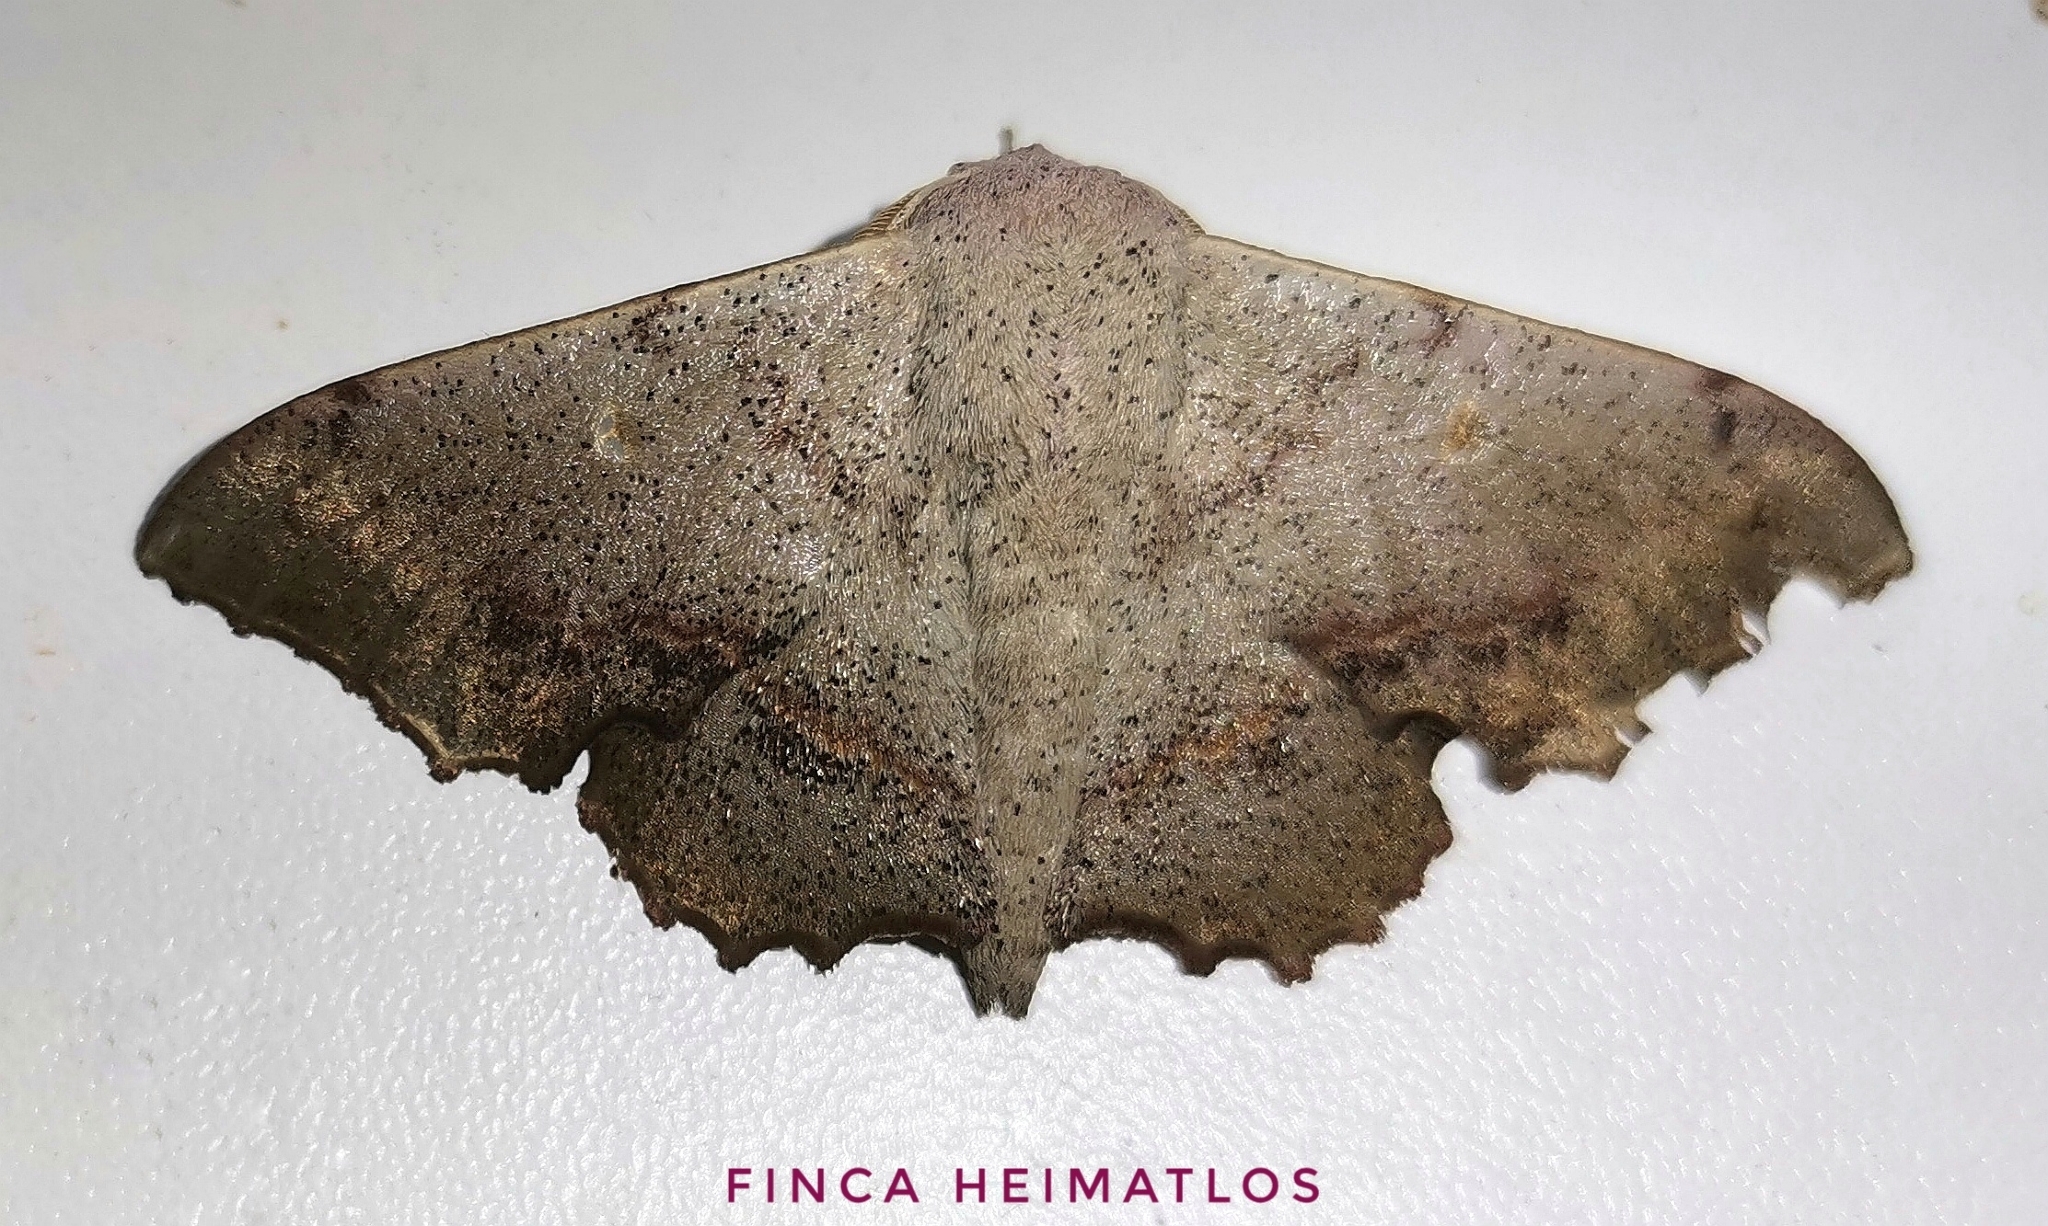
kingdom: Animalia
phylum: Arthropoda
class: Insecta
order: Lepidoptera
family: Mimallonidae
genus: Mimallo
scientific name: Mimallo brosica
